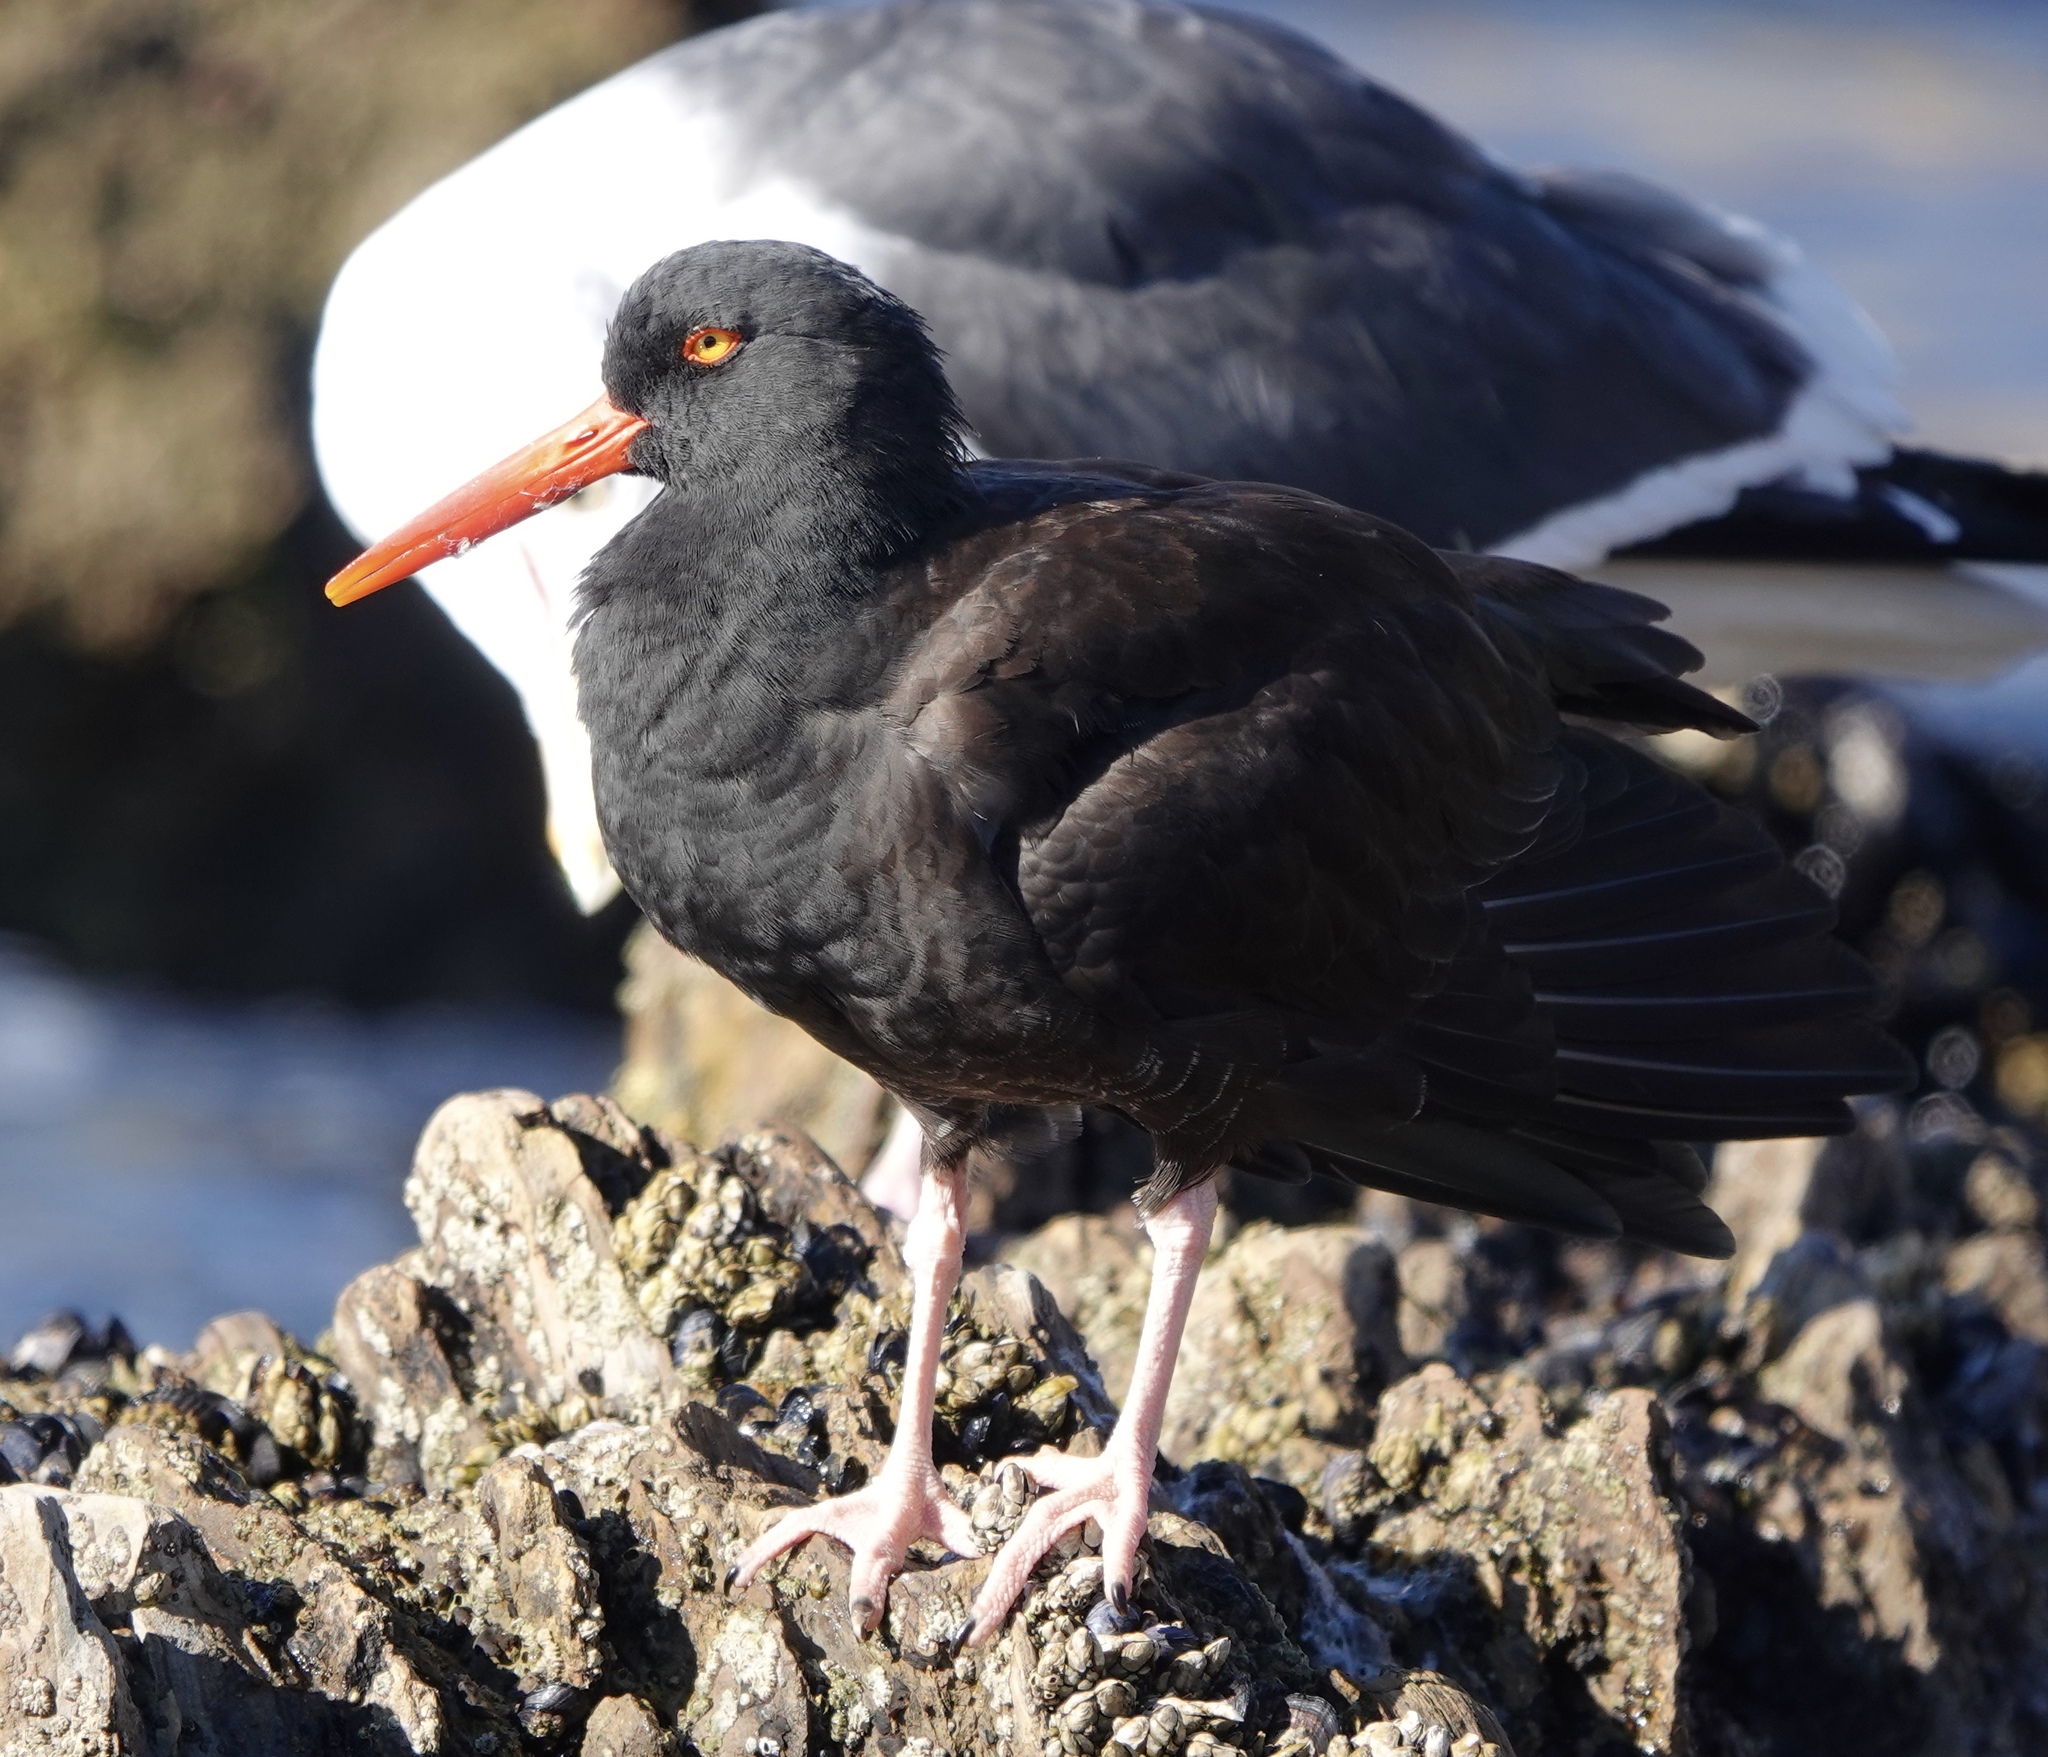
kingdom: Animalia
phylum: Chordata
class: Aves
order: Charadriiformes
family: Haematopodidae
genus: Haematopus
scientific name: Haematopus bachmani
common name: Black oystercatcher
